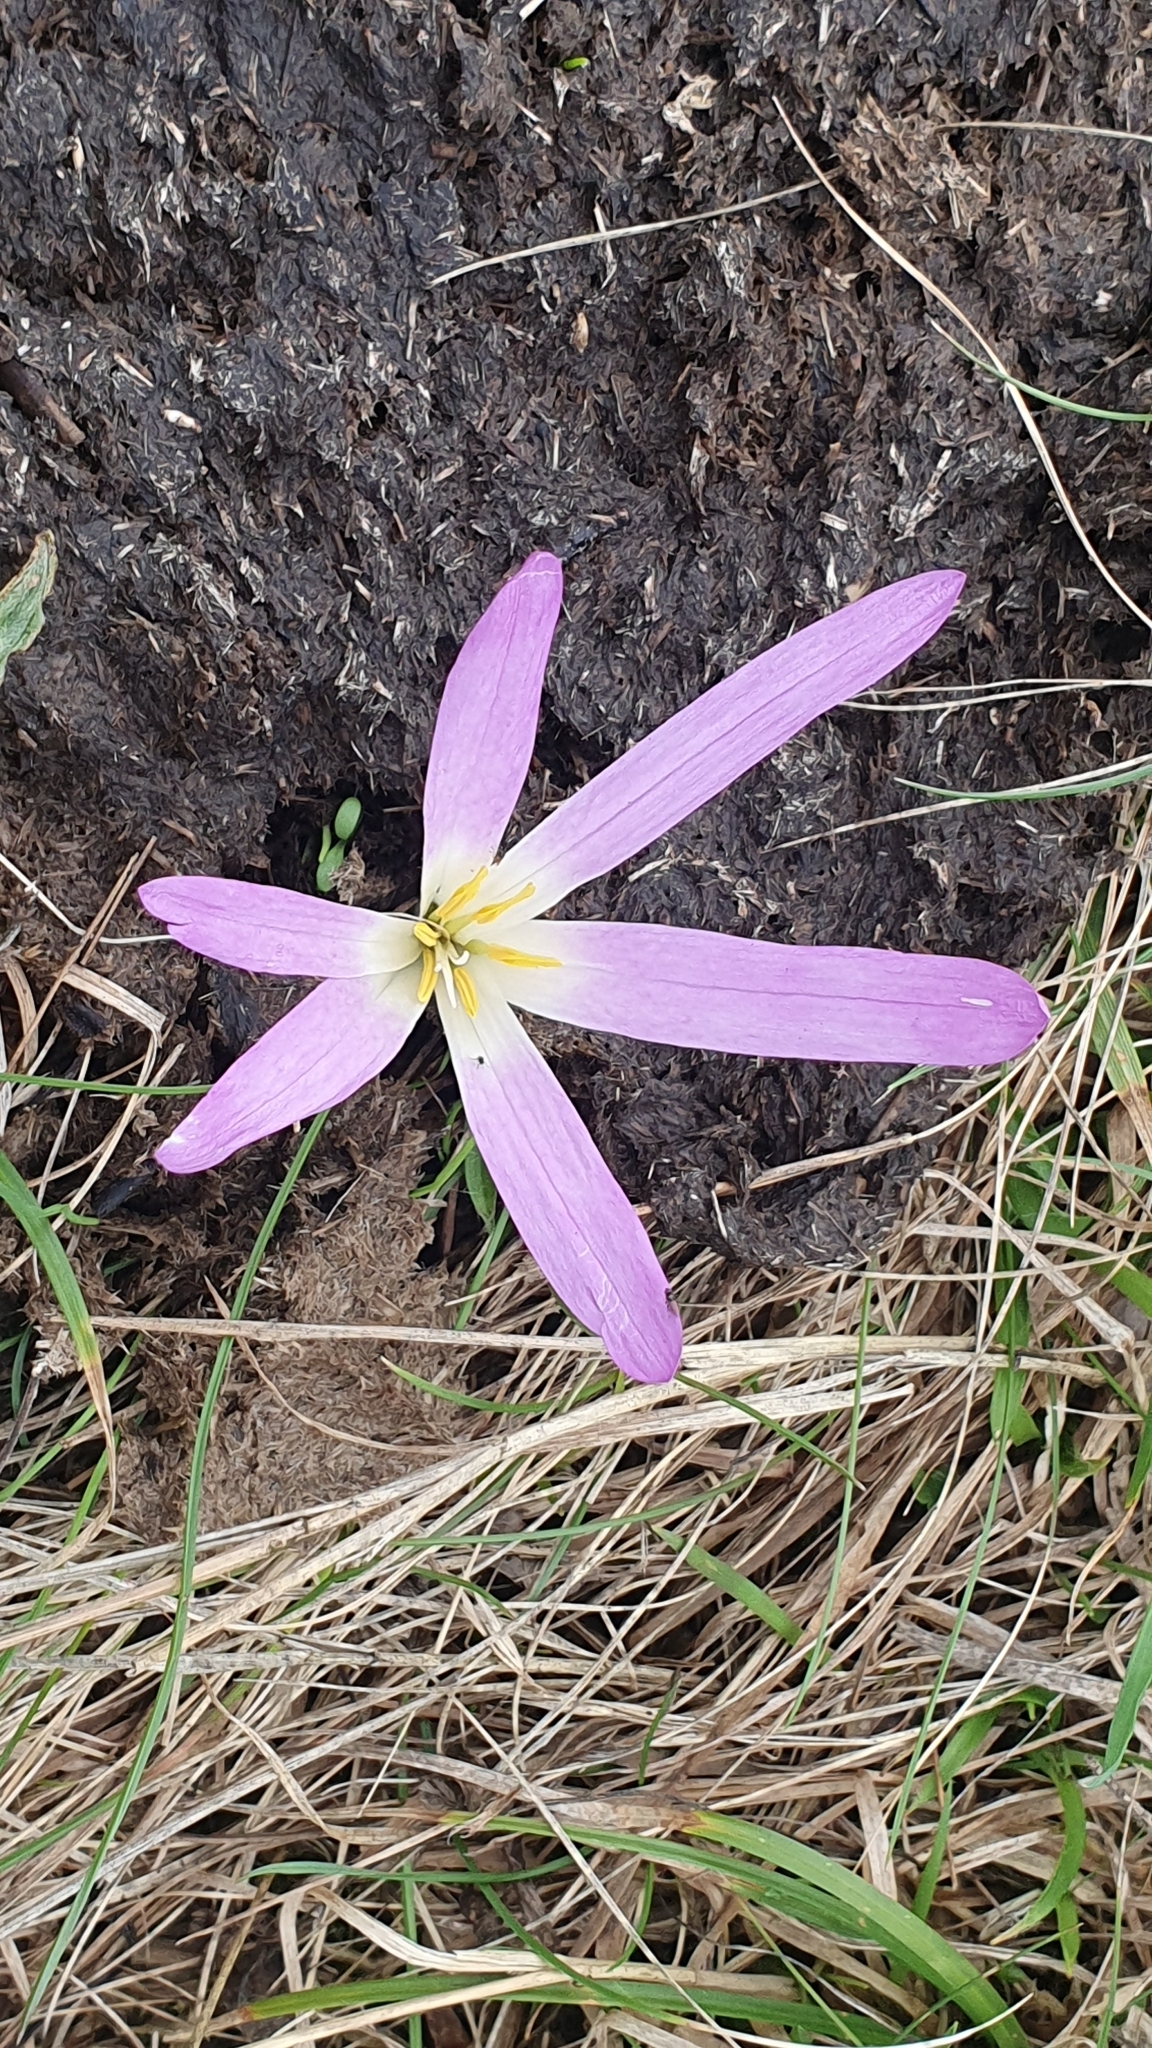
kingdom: Plantae
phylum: Tracheophyta
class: Liliopsida
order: Liliales
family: Colchicaceae
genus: Colchicum
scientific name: Colchicum montanum
